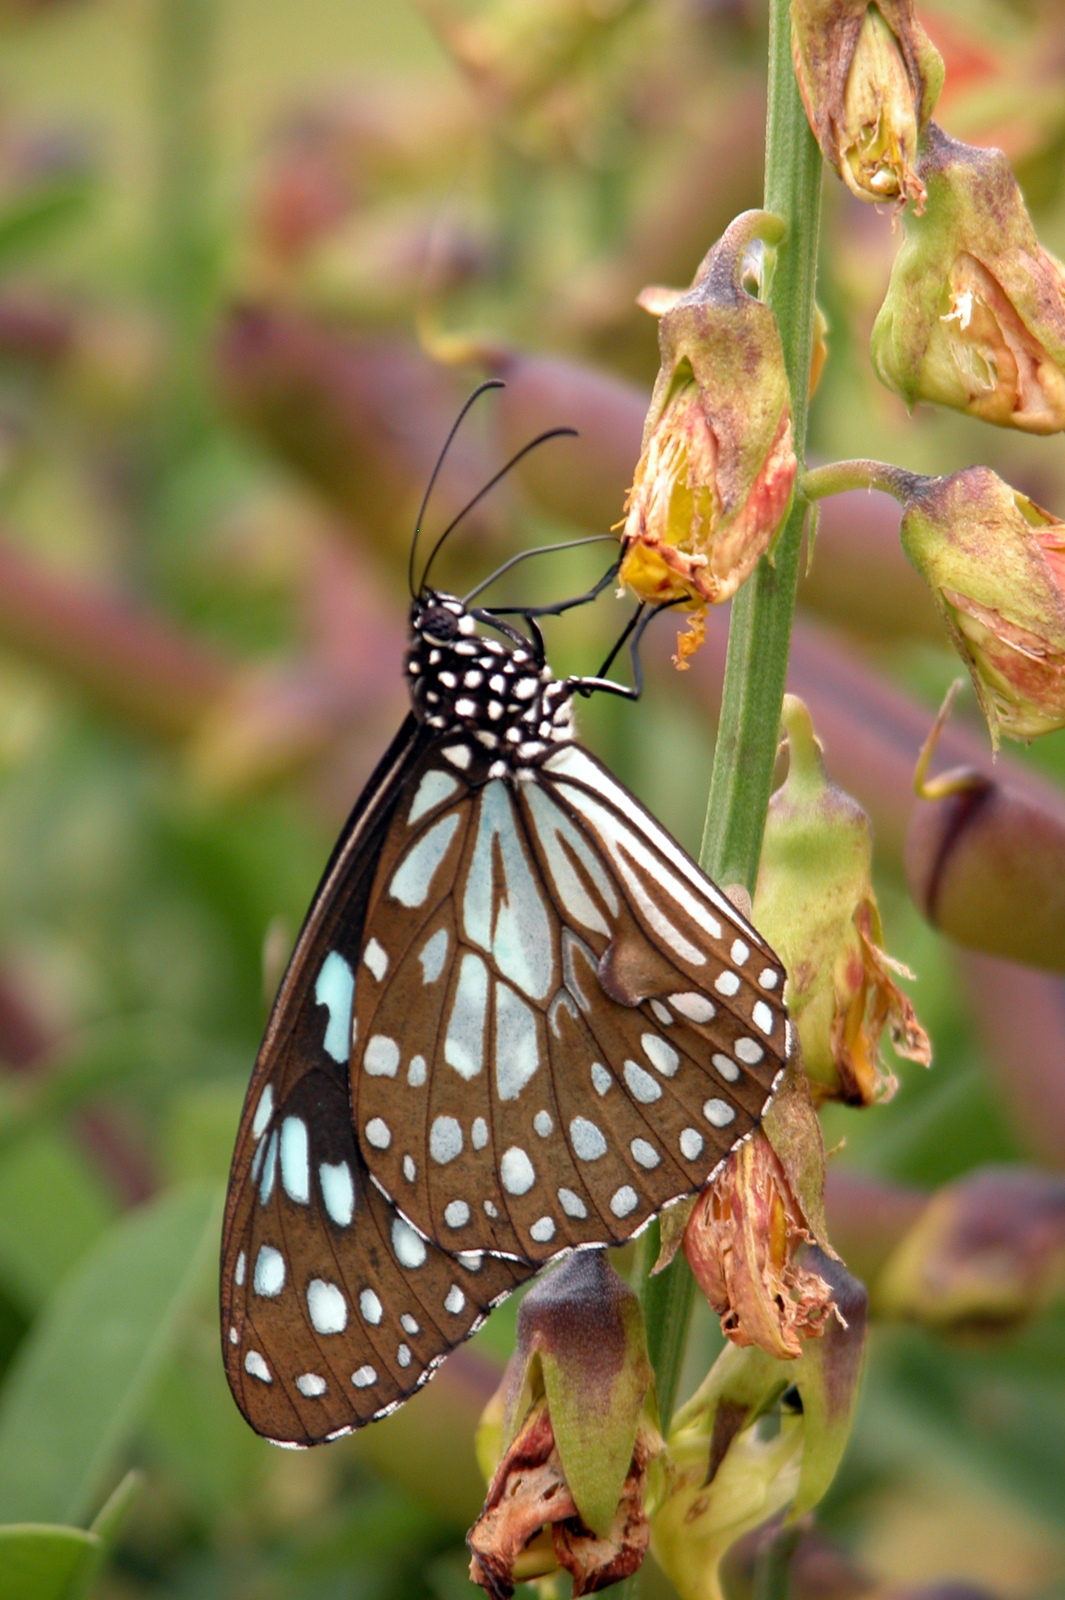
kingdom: Animalia
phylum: Arthropoda
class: Insecta
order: Lepidoptera
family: Nymphalidae
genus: Tirumala
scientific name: Tirumala limniace
